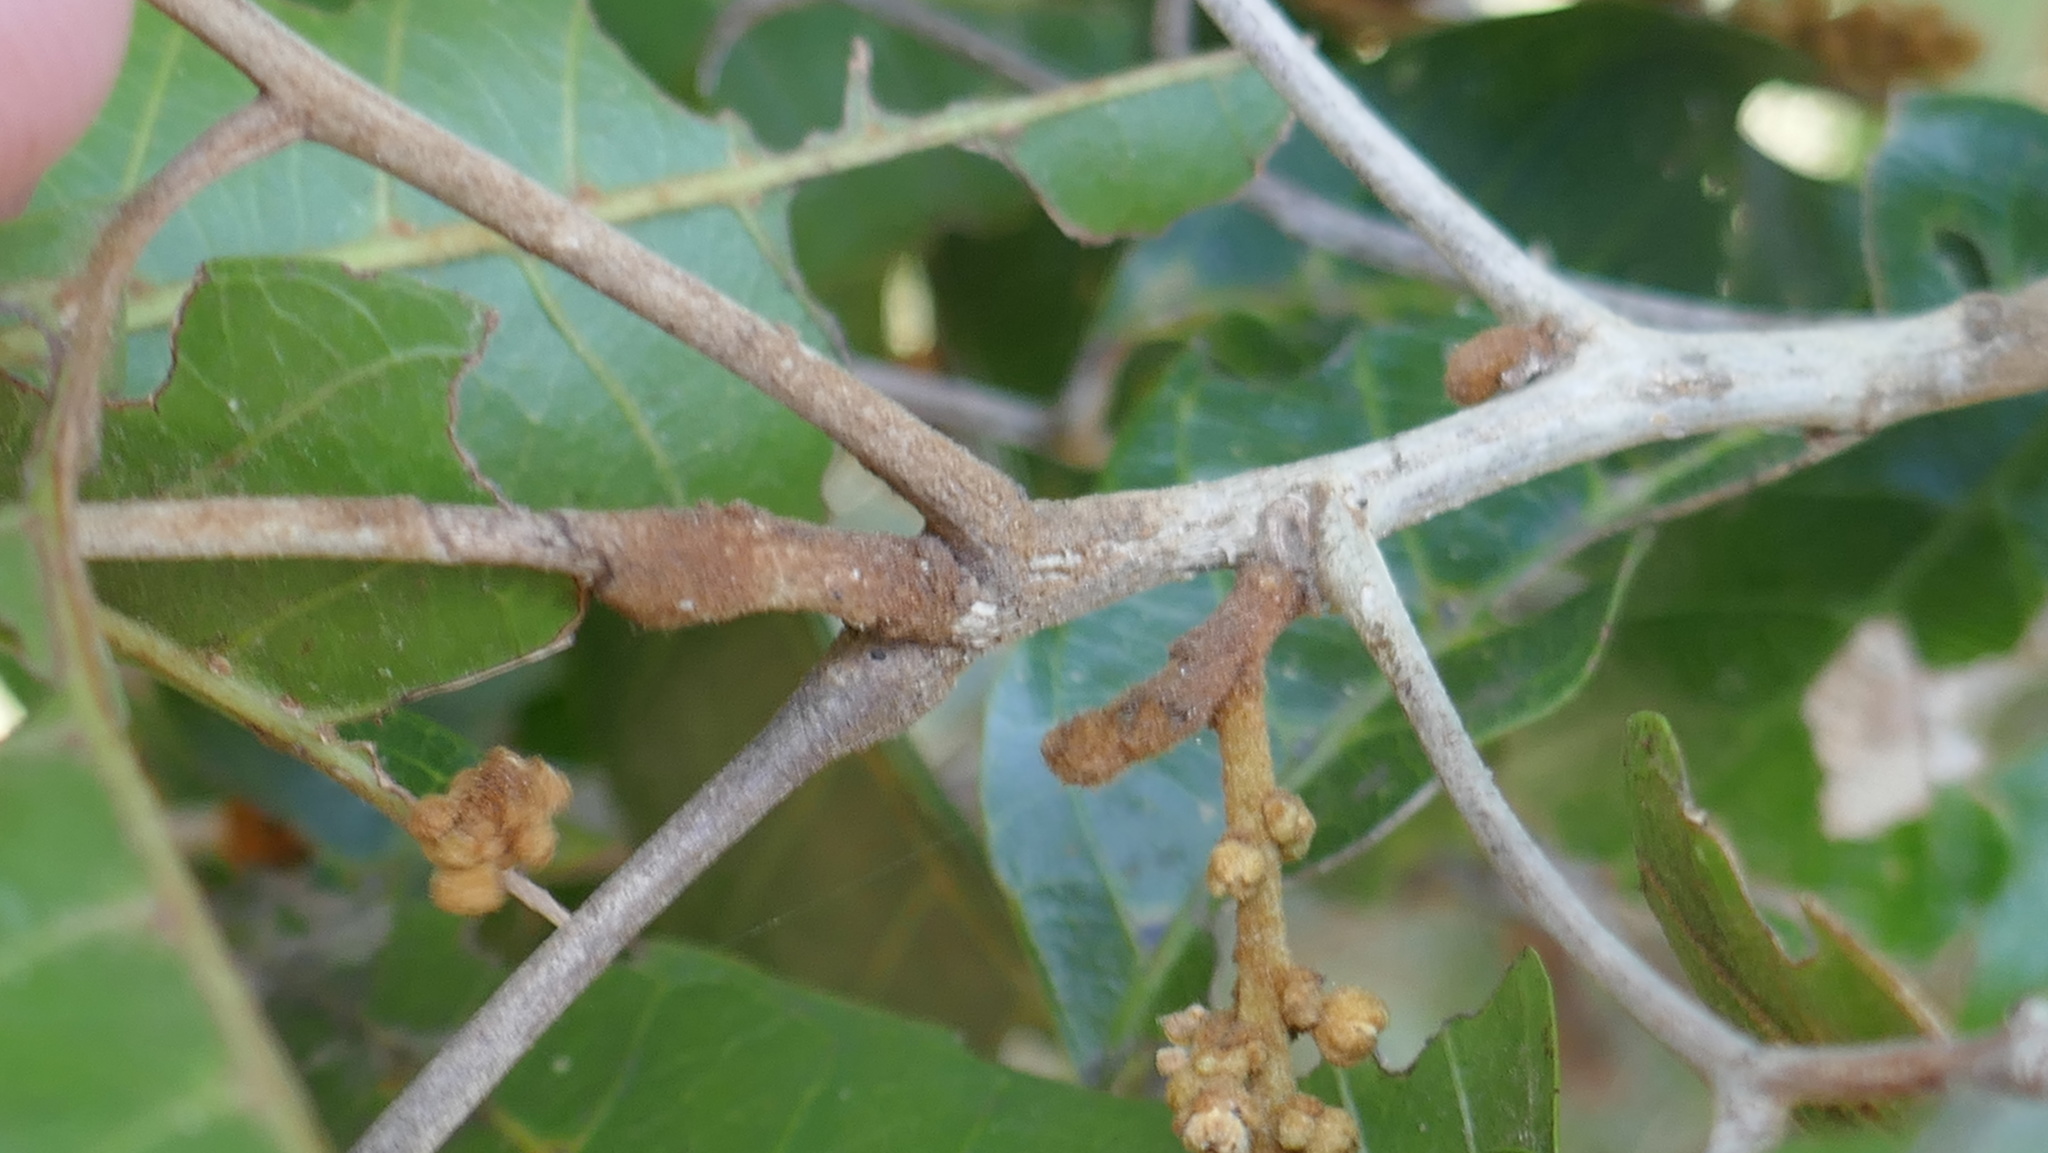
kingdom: Plantae
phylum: Tracheophyta
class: Magnoliopsida
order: Sapindales
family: Sapindaceae
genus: Arytera
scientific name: Arytera foveolata
